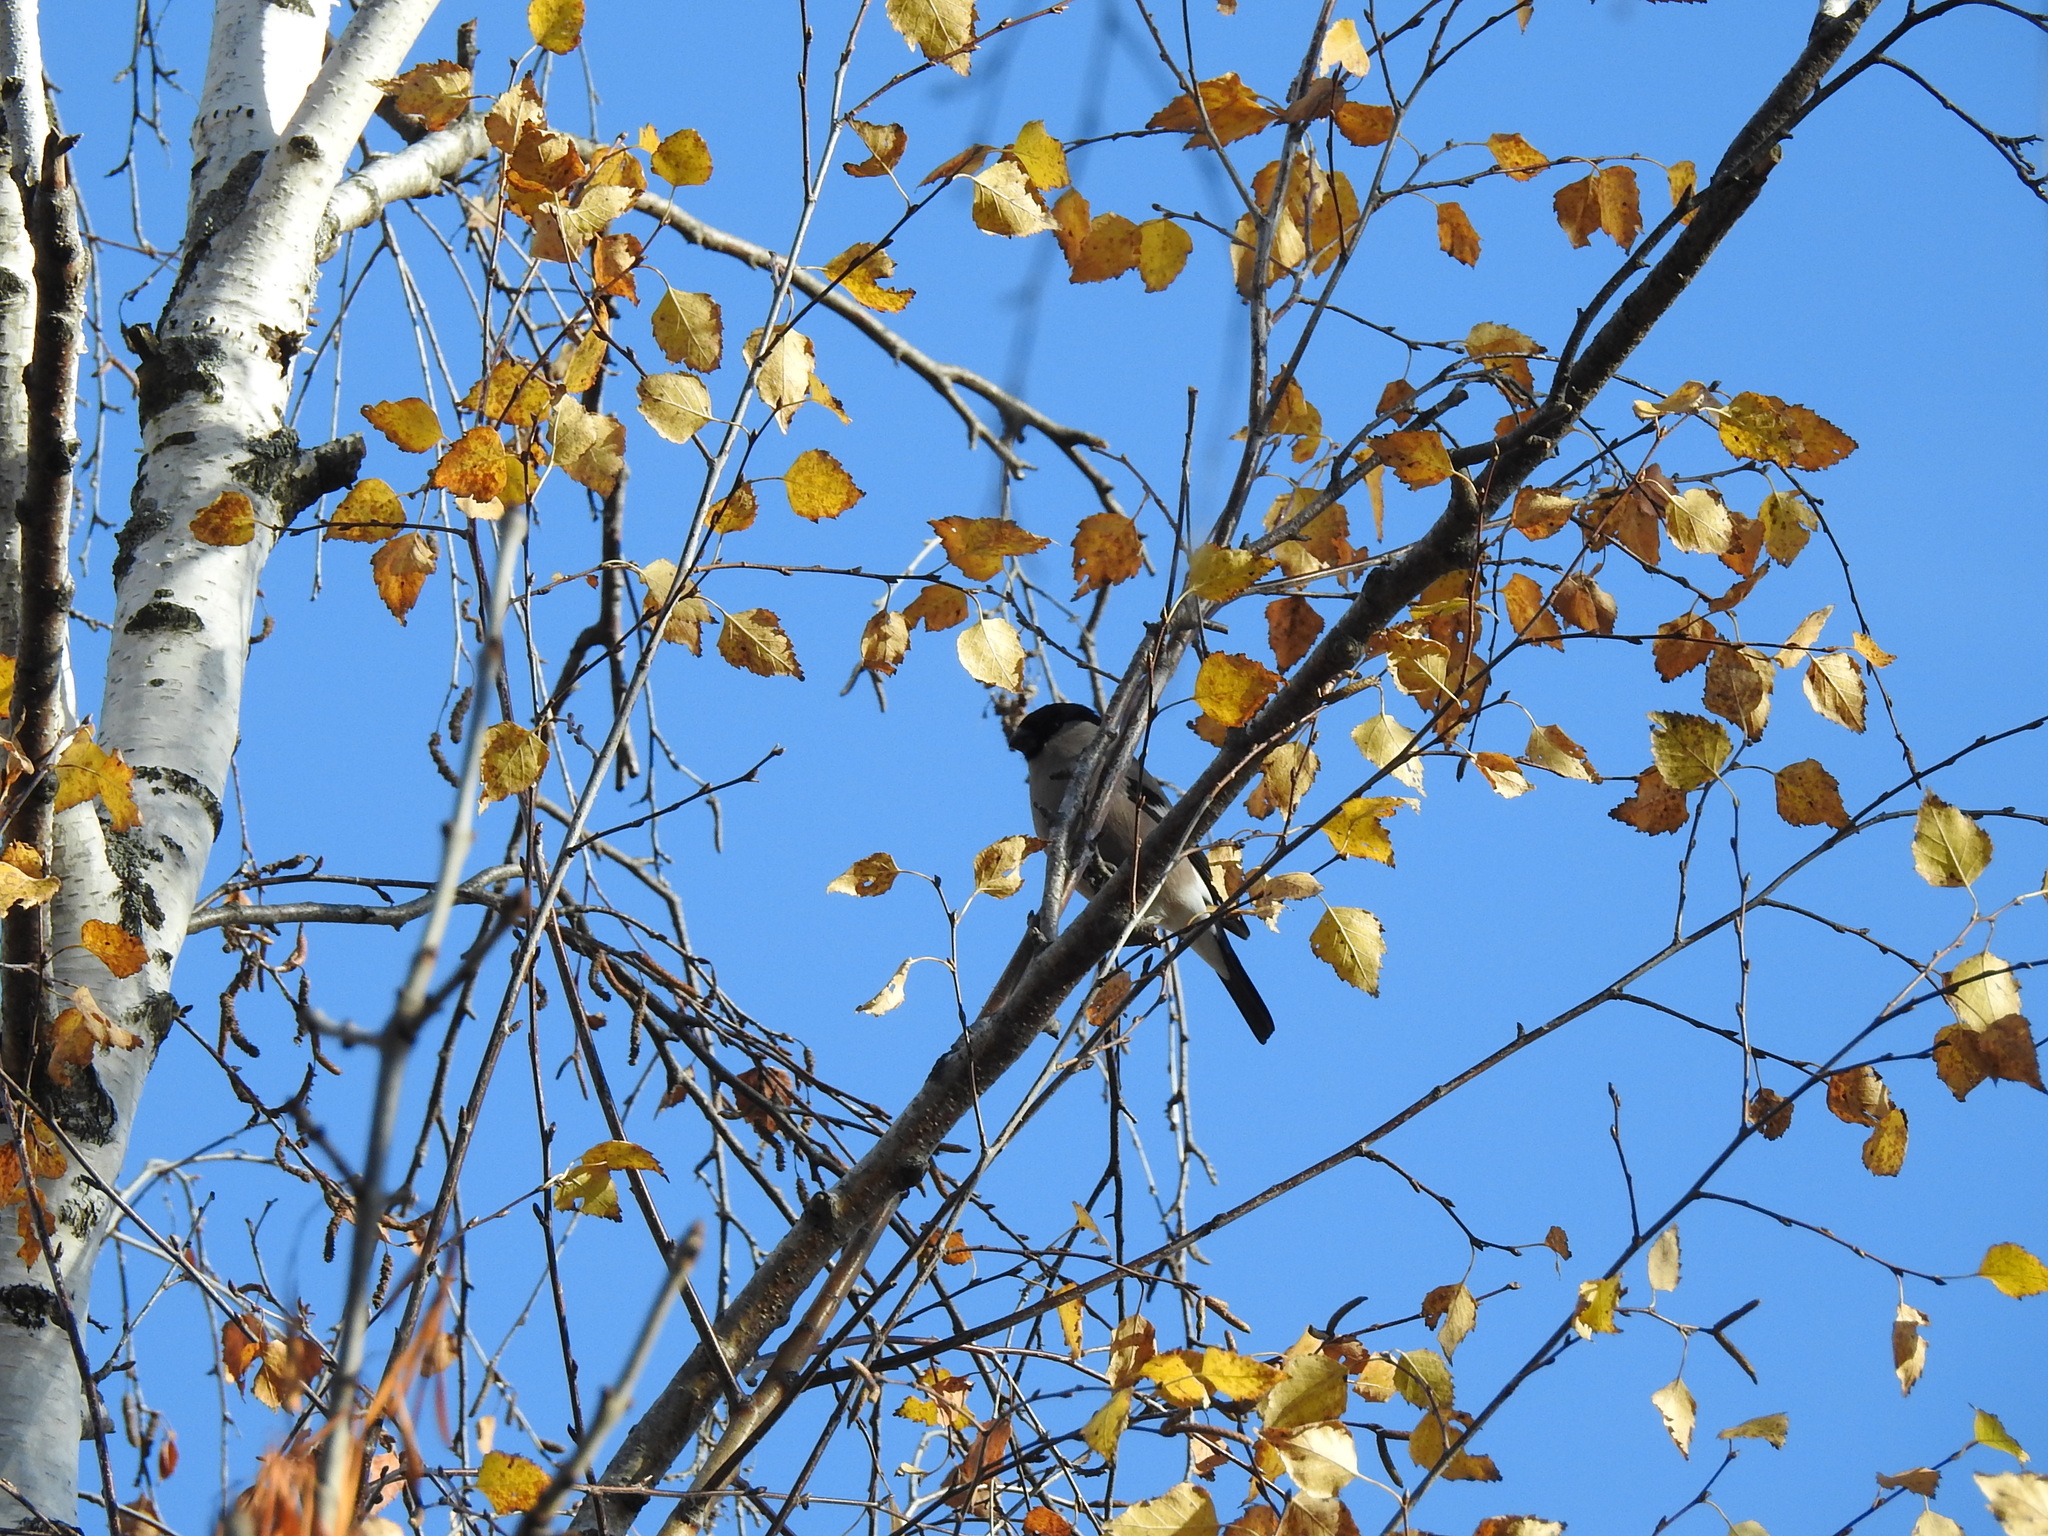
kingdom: Animalia
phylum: Chordata
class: Aves
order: Passeriformes
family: Fringillidae
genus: Pyrrhula
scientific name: Pyrrhula pyrrhula
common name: Eurasian bullfinch
